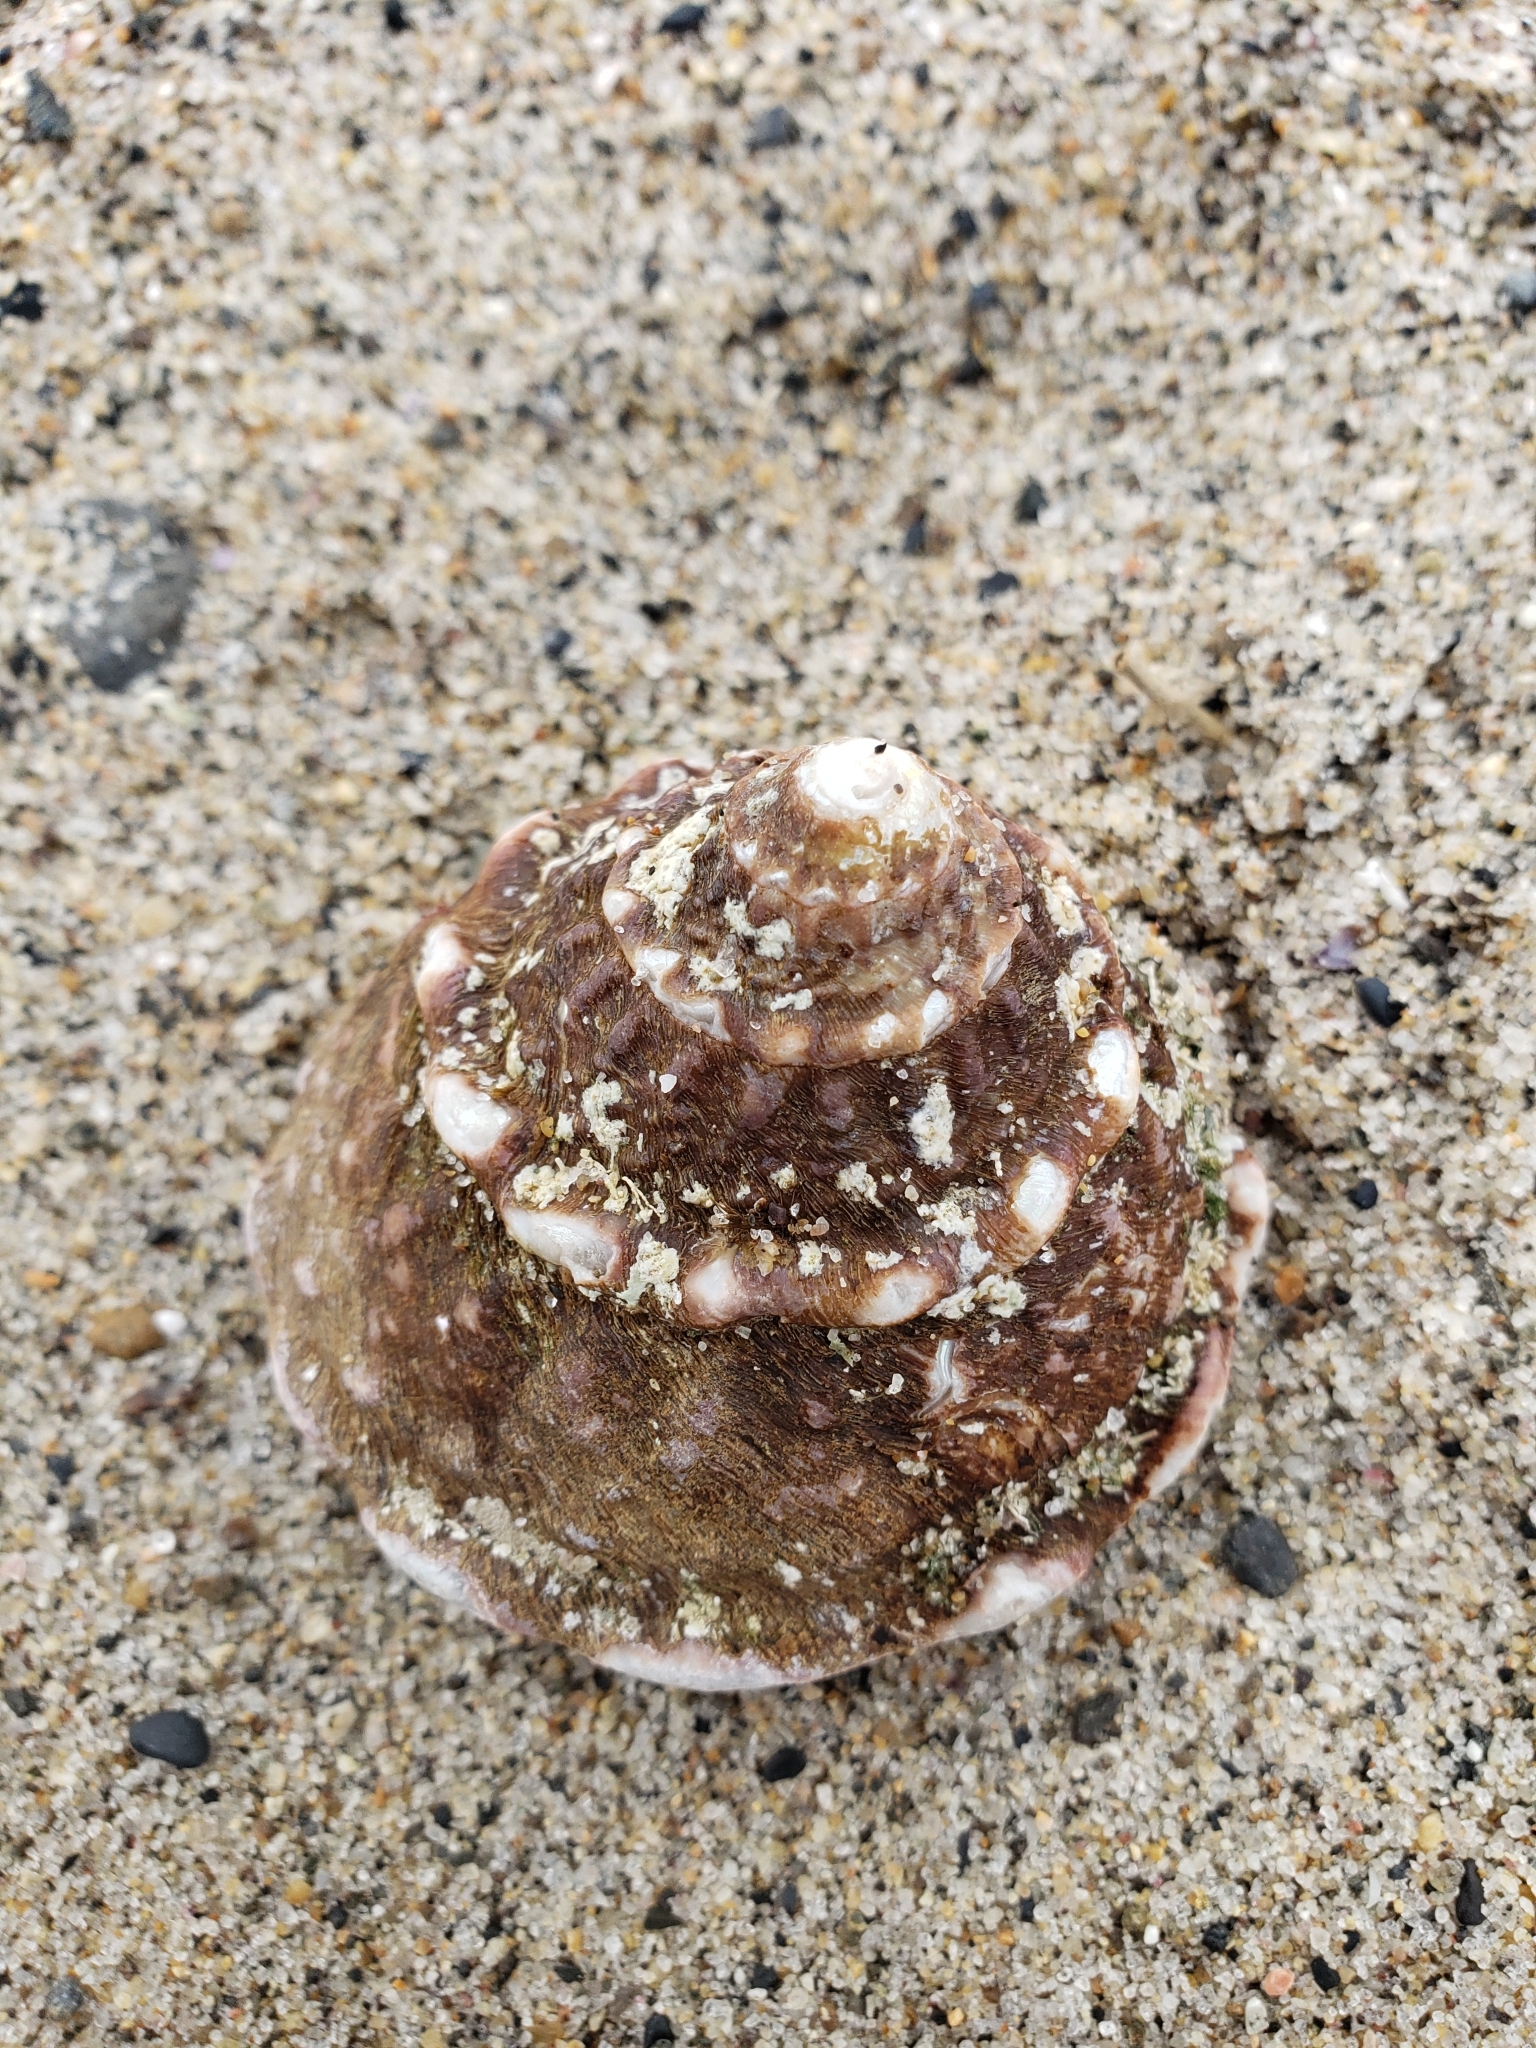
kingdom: Animalia
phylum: Mollusca
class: Gastropoda
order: Trochida
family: Turbinidae
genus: Megastraea
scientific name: Megastraea undosa
